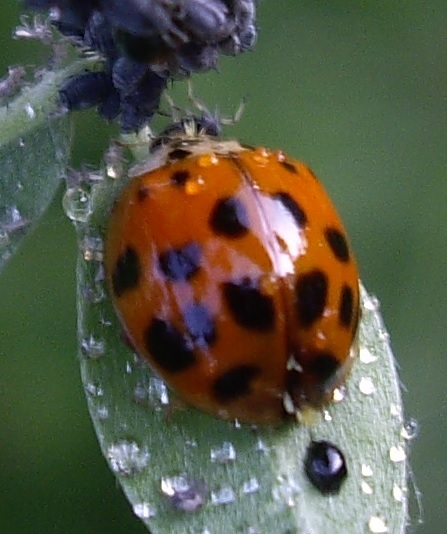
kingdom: Animalia
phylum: Arthropoda
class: Insecta
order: Coleoptera
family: Coccinellidae
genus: Harmonia
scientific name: Harmonia axyridis
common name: Harlequin ladybird
